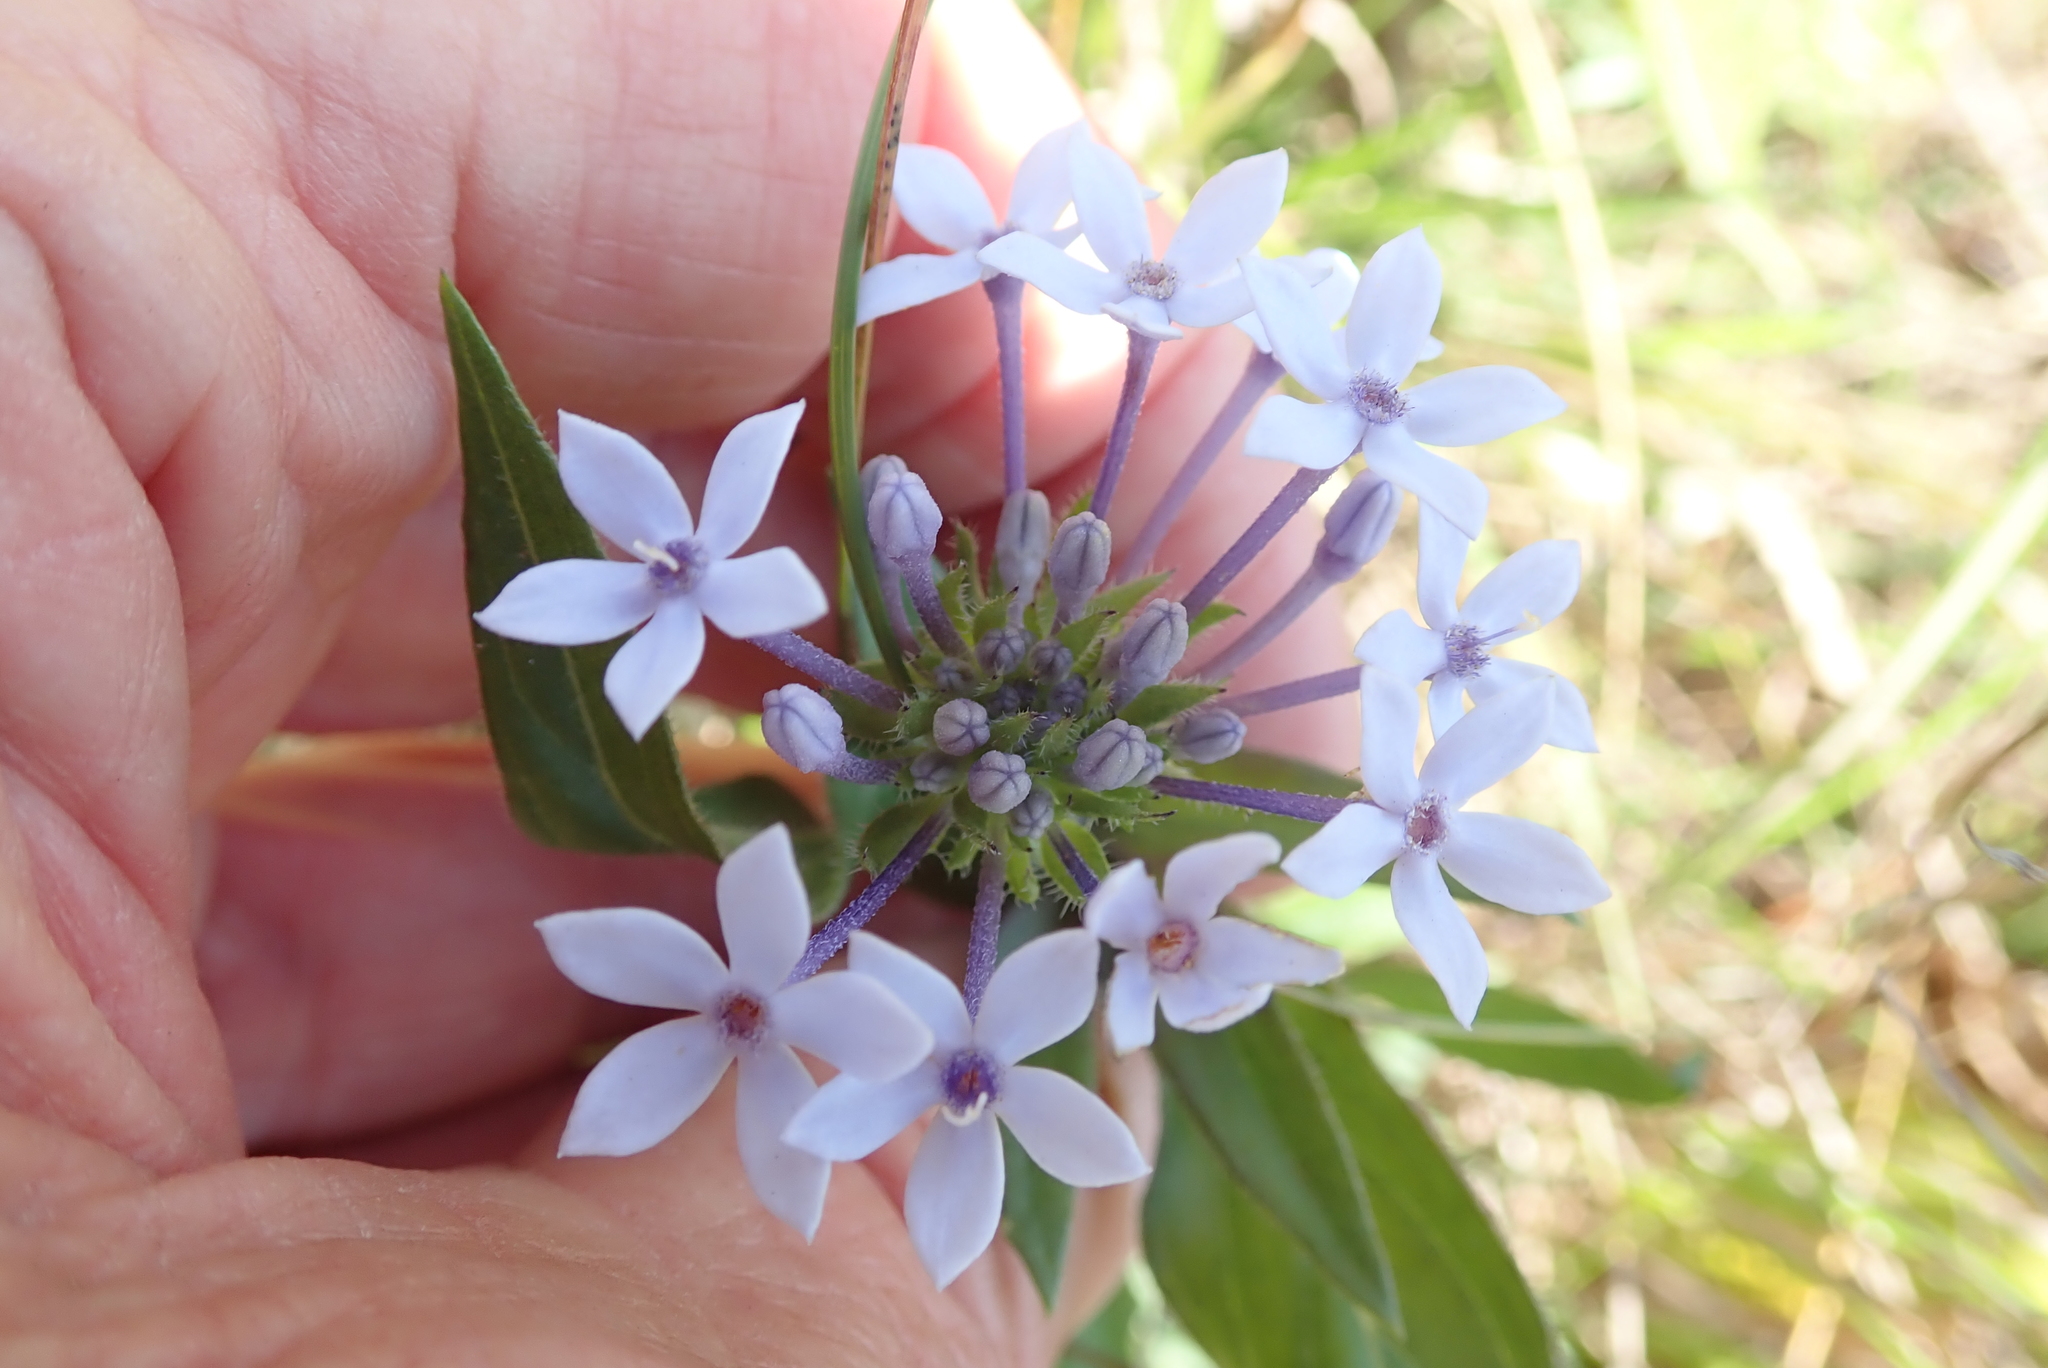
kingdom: Plantae
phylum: Tracheophyta
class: Magnoliopsida
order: Gentianales
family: Rubiaceae
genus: Pentanisia
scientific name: Pentanisia prunelloides
